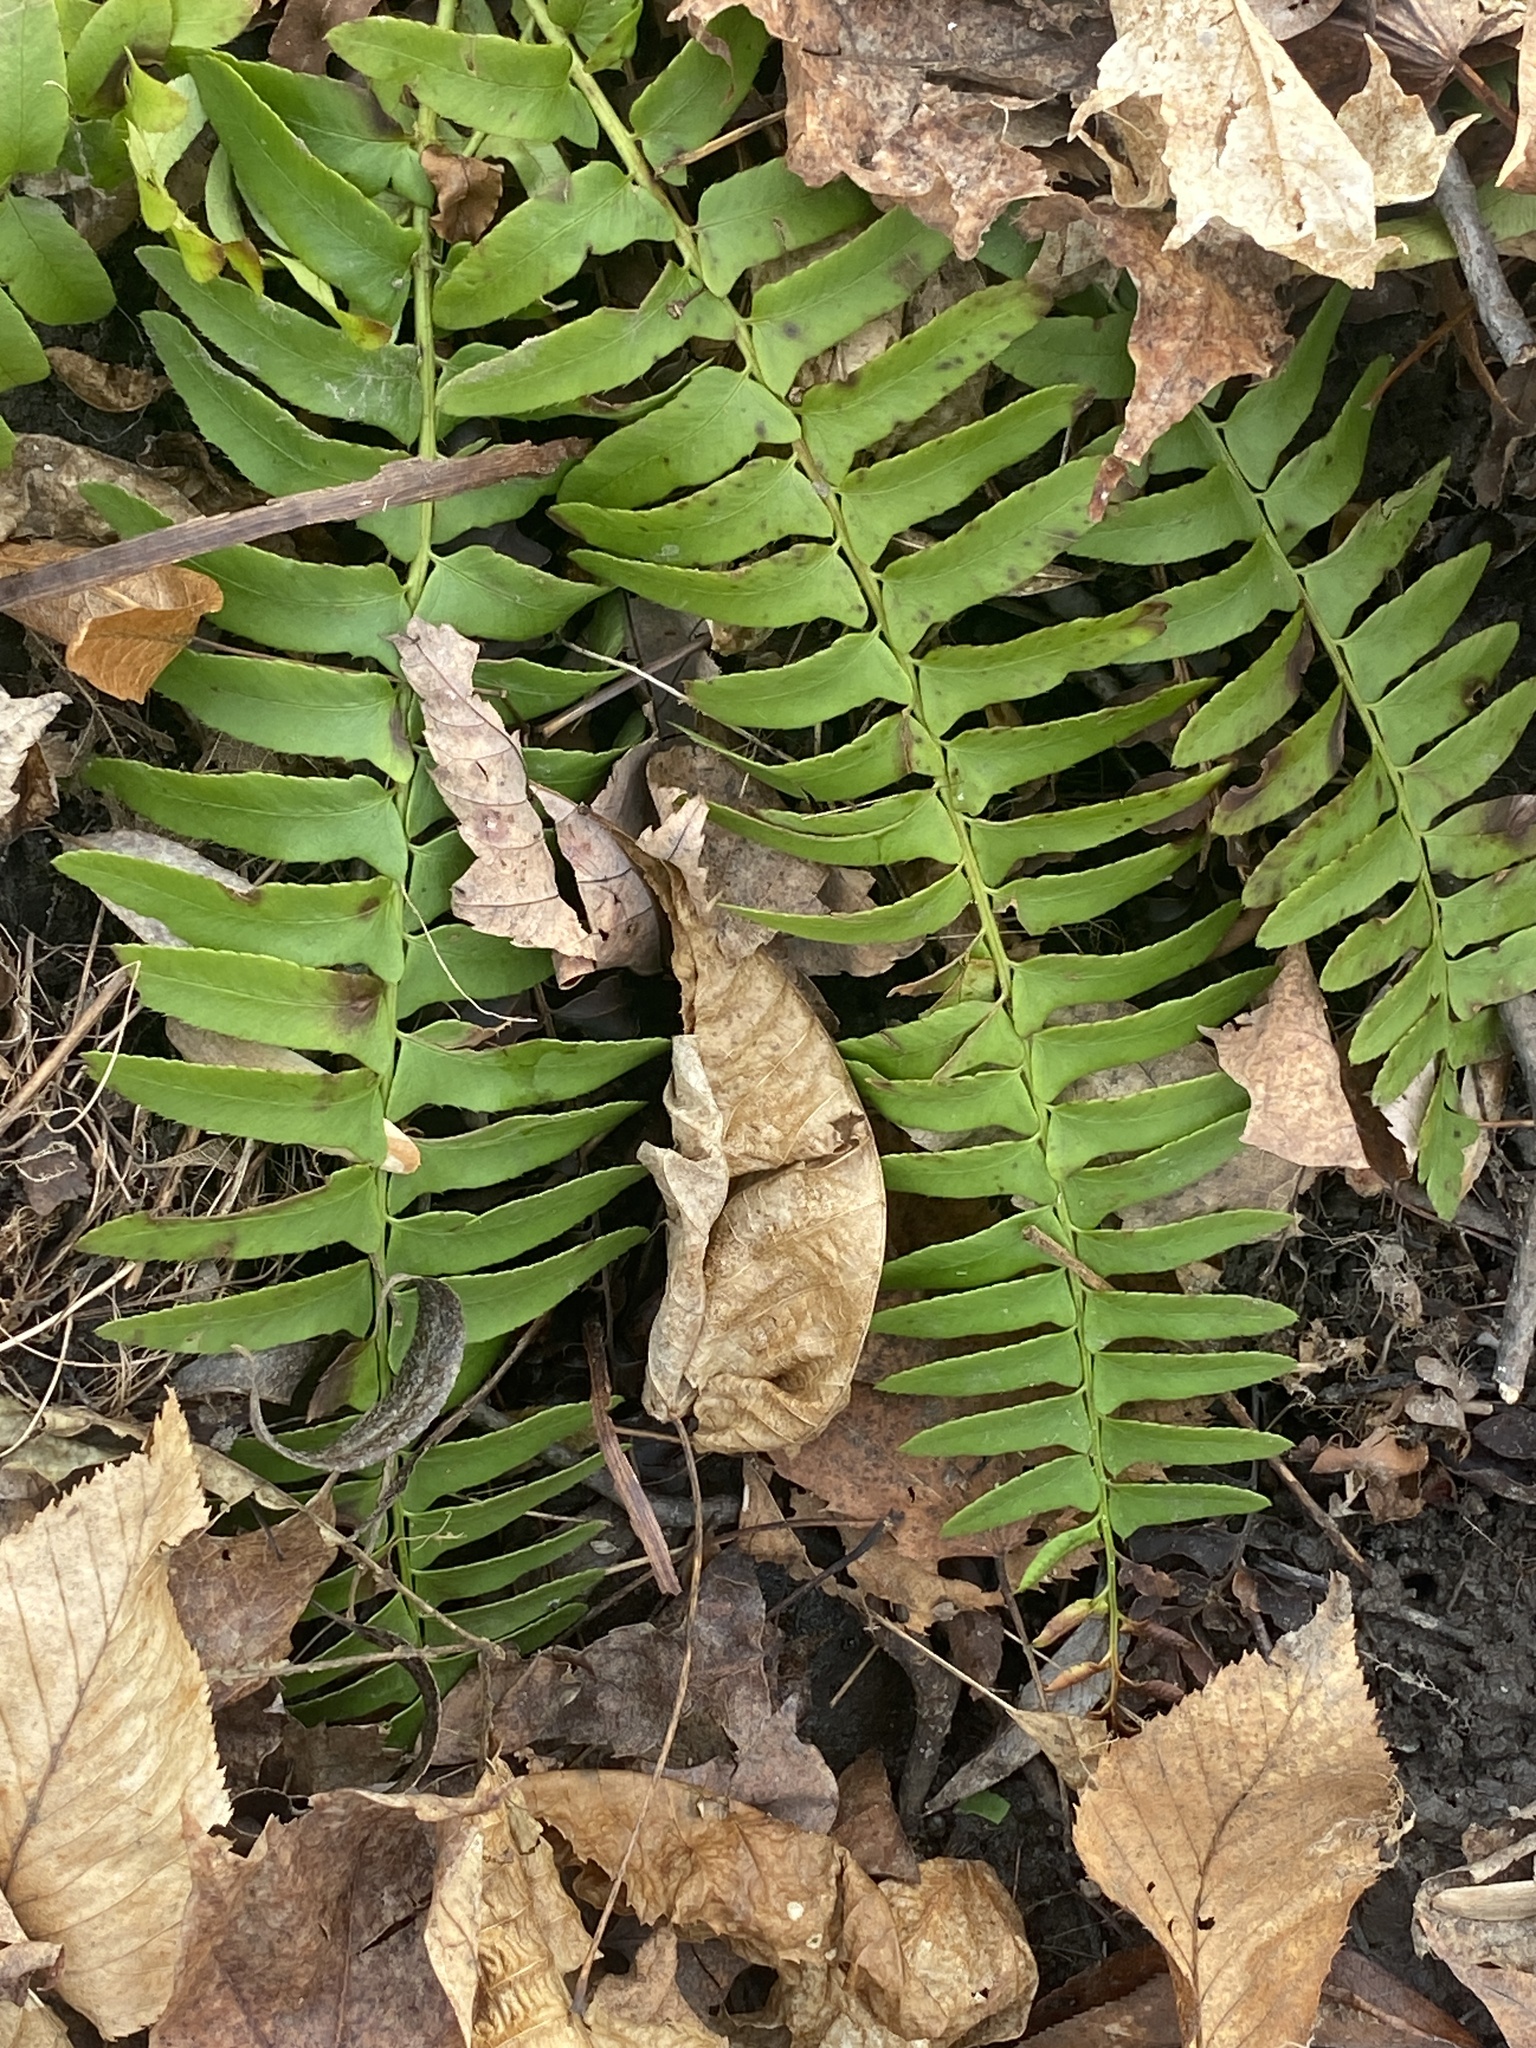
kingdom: Plantae
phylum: Tracheophyta
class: Polypodiopsida
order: Polypodiales
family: Dryopteridaceae
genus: Polystichum
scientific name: Polystichum acrostichoides
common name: Christmas fern
